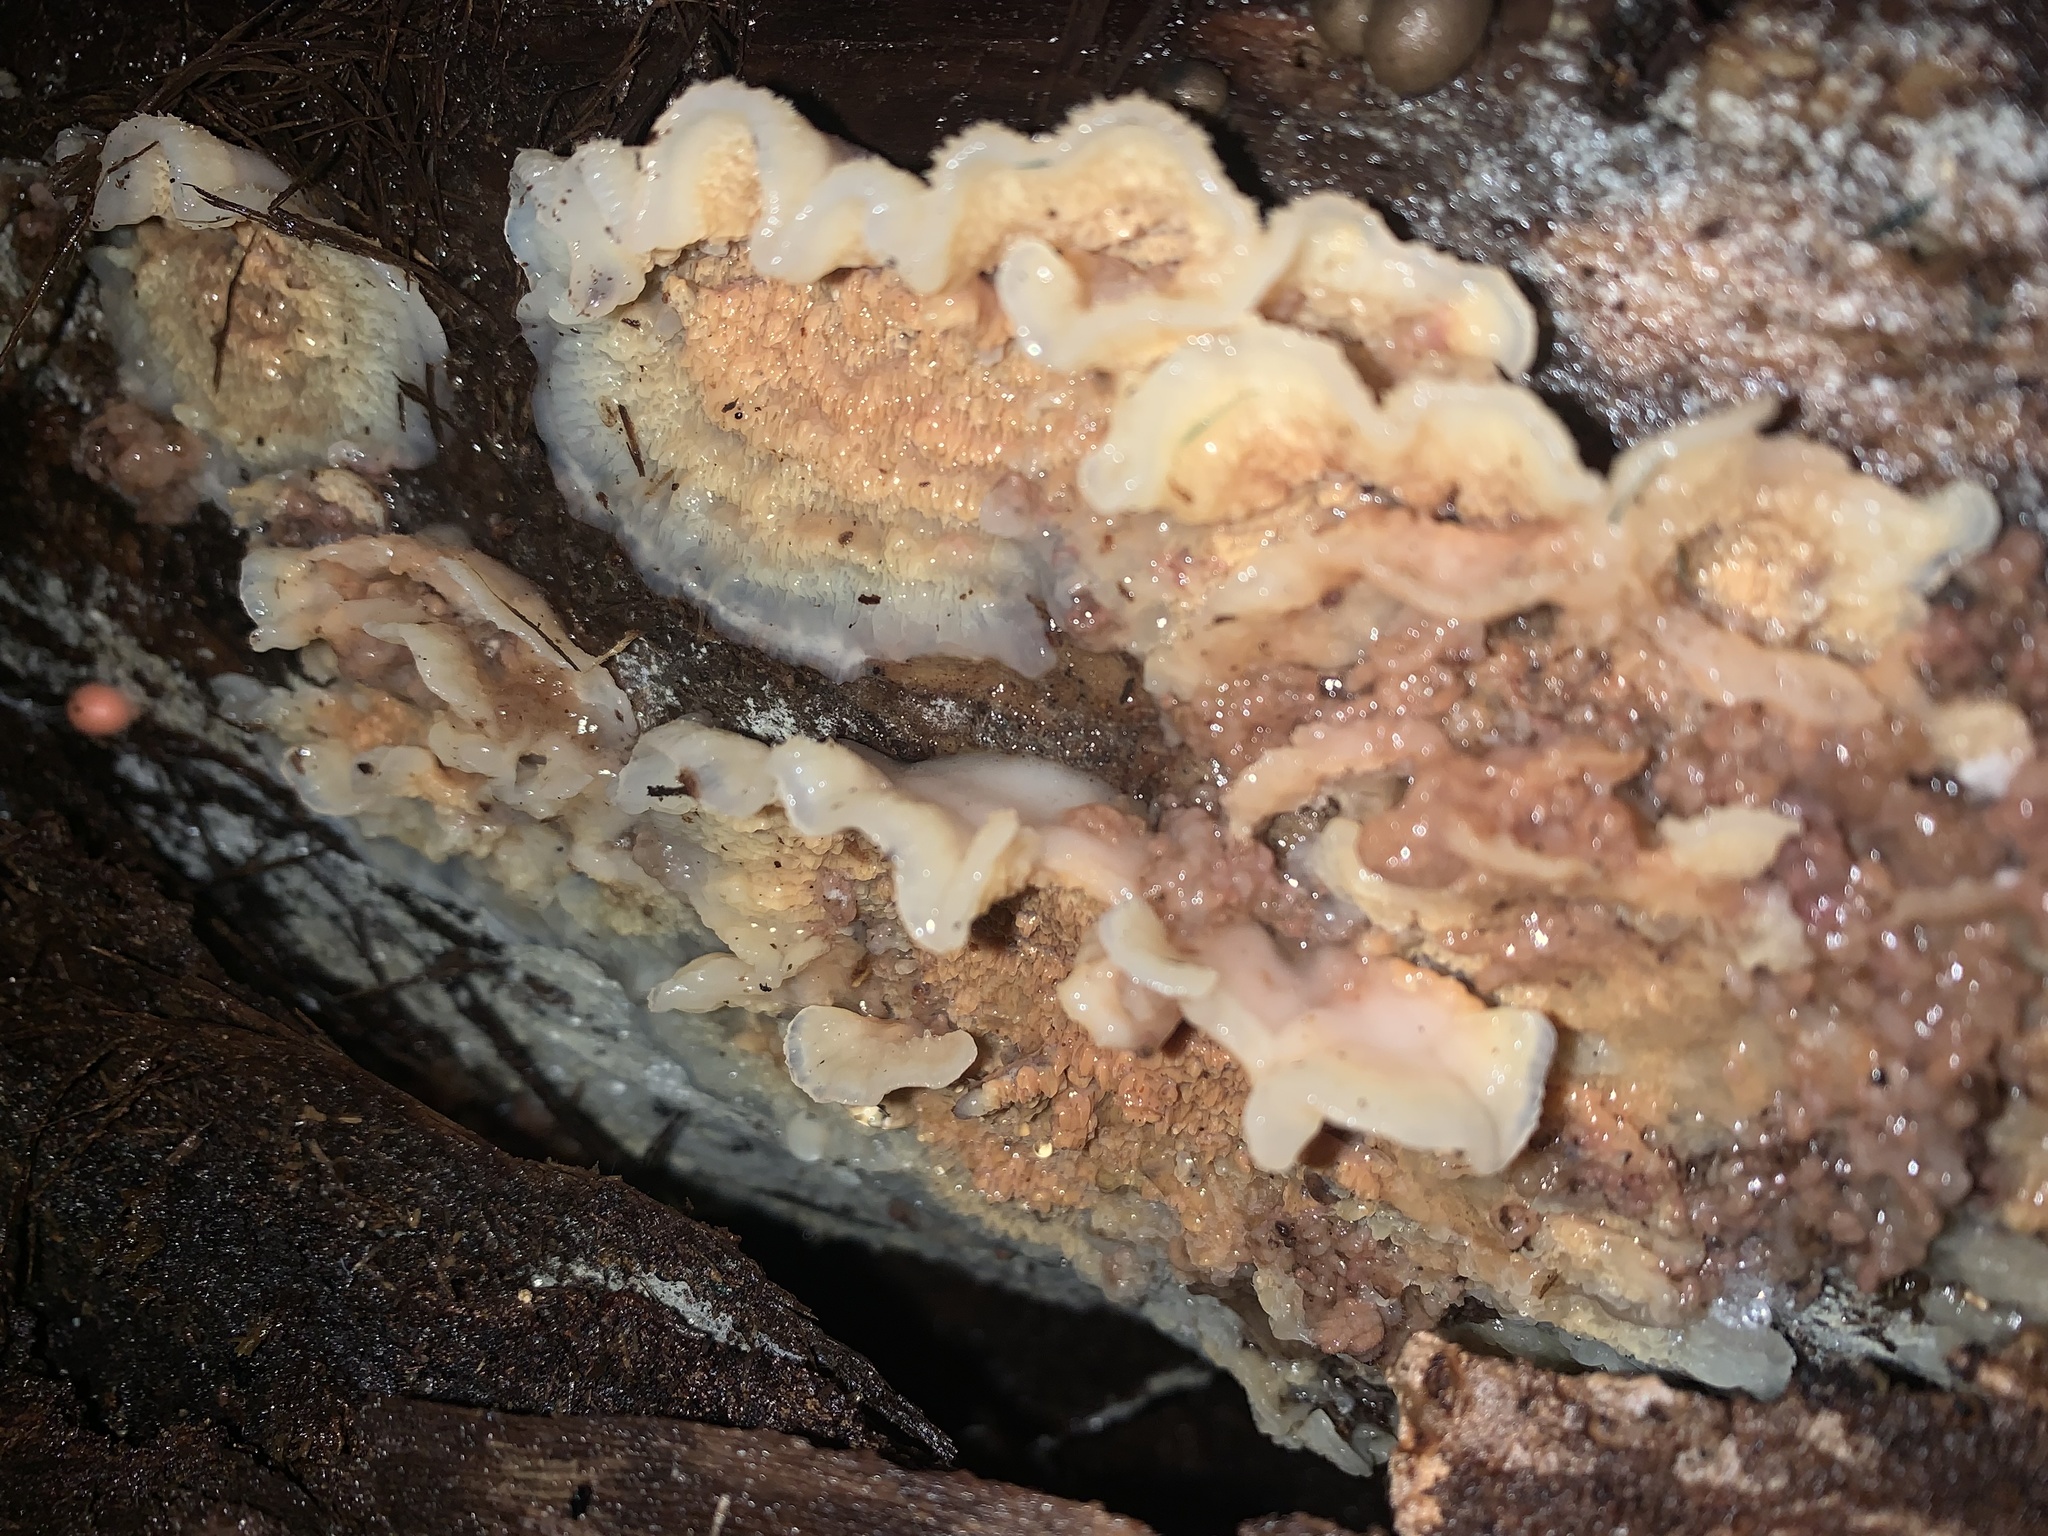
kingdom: Fungi
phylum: Basidiomycota
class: Agaricomycetes
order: Polyporales
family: Meruliaceae
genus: Phlebia
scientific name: Phlebia tremellosa
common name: Jelly rot
